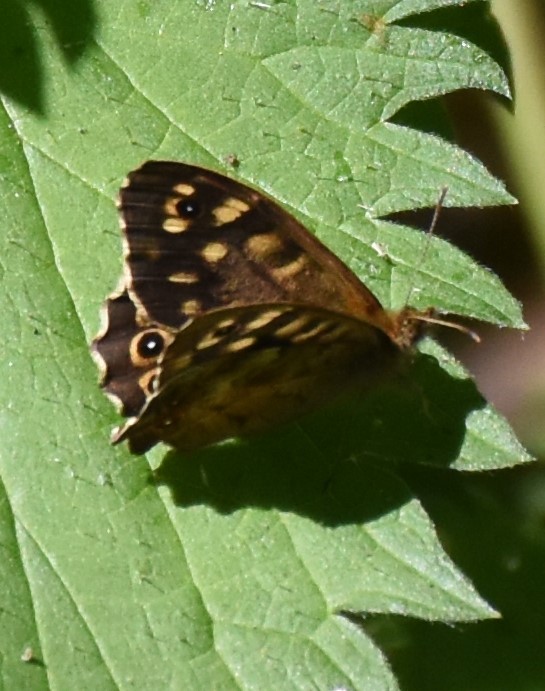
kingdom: Animalia
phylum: Arthropoda
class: Insecta
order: Lepidoptera
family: Nymphalidae
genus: Pararge
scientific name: Pararge aegeria
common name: Speckled wood
